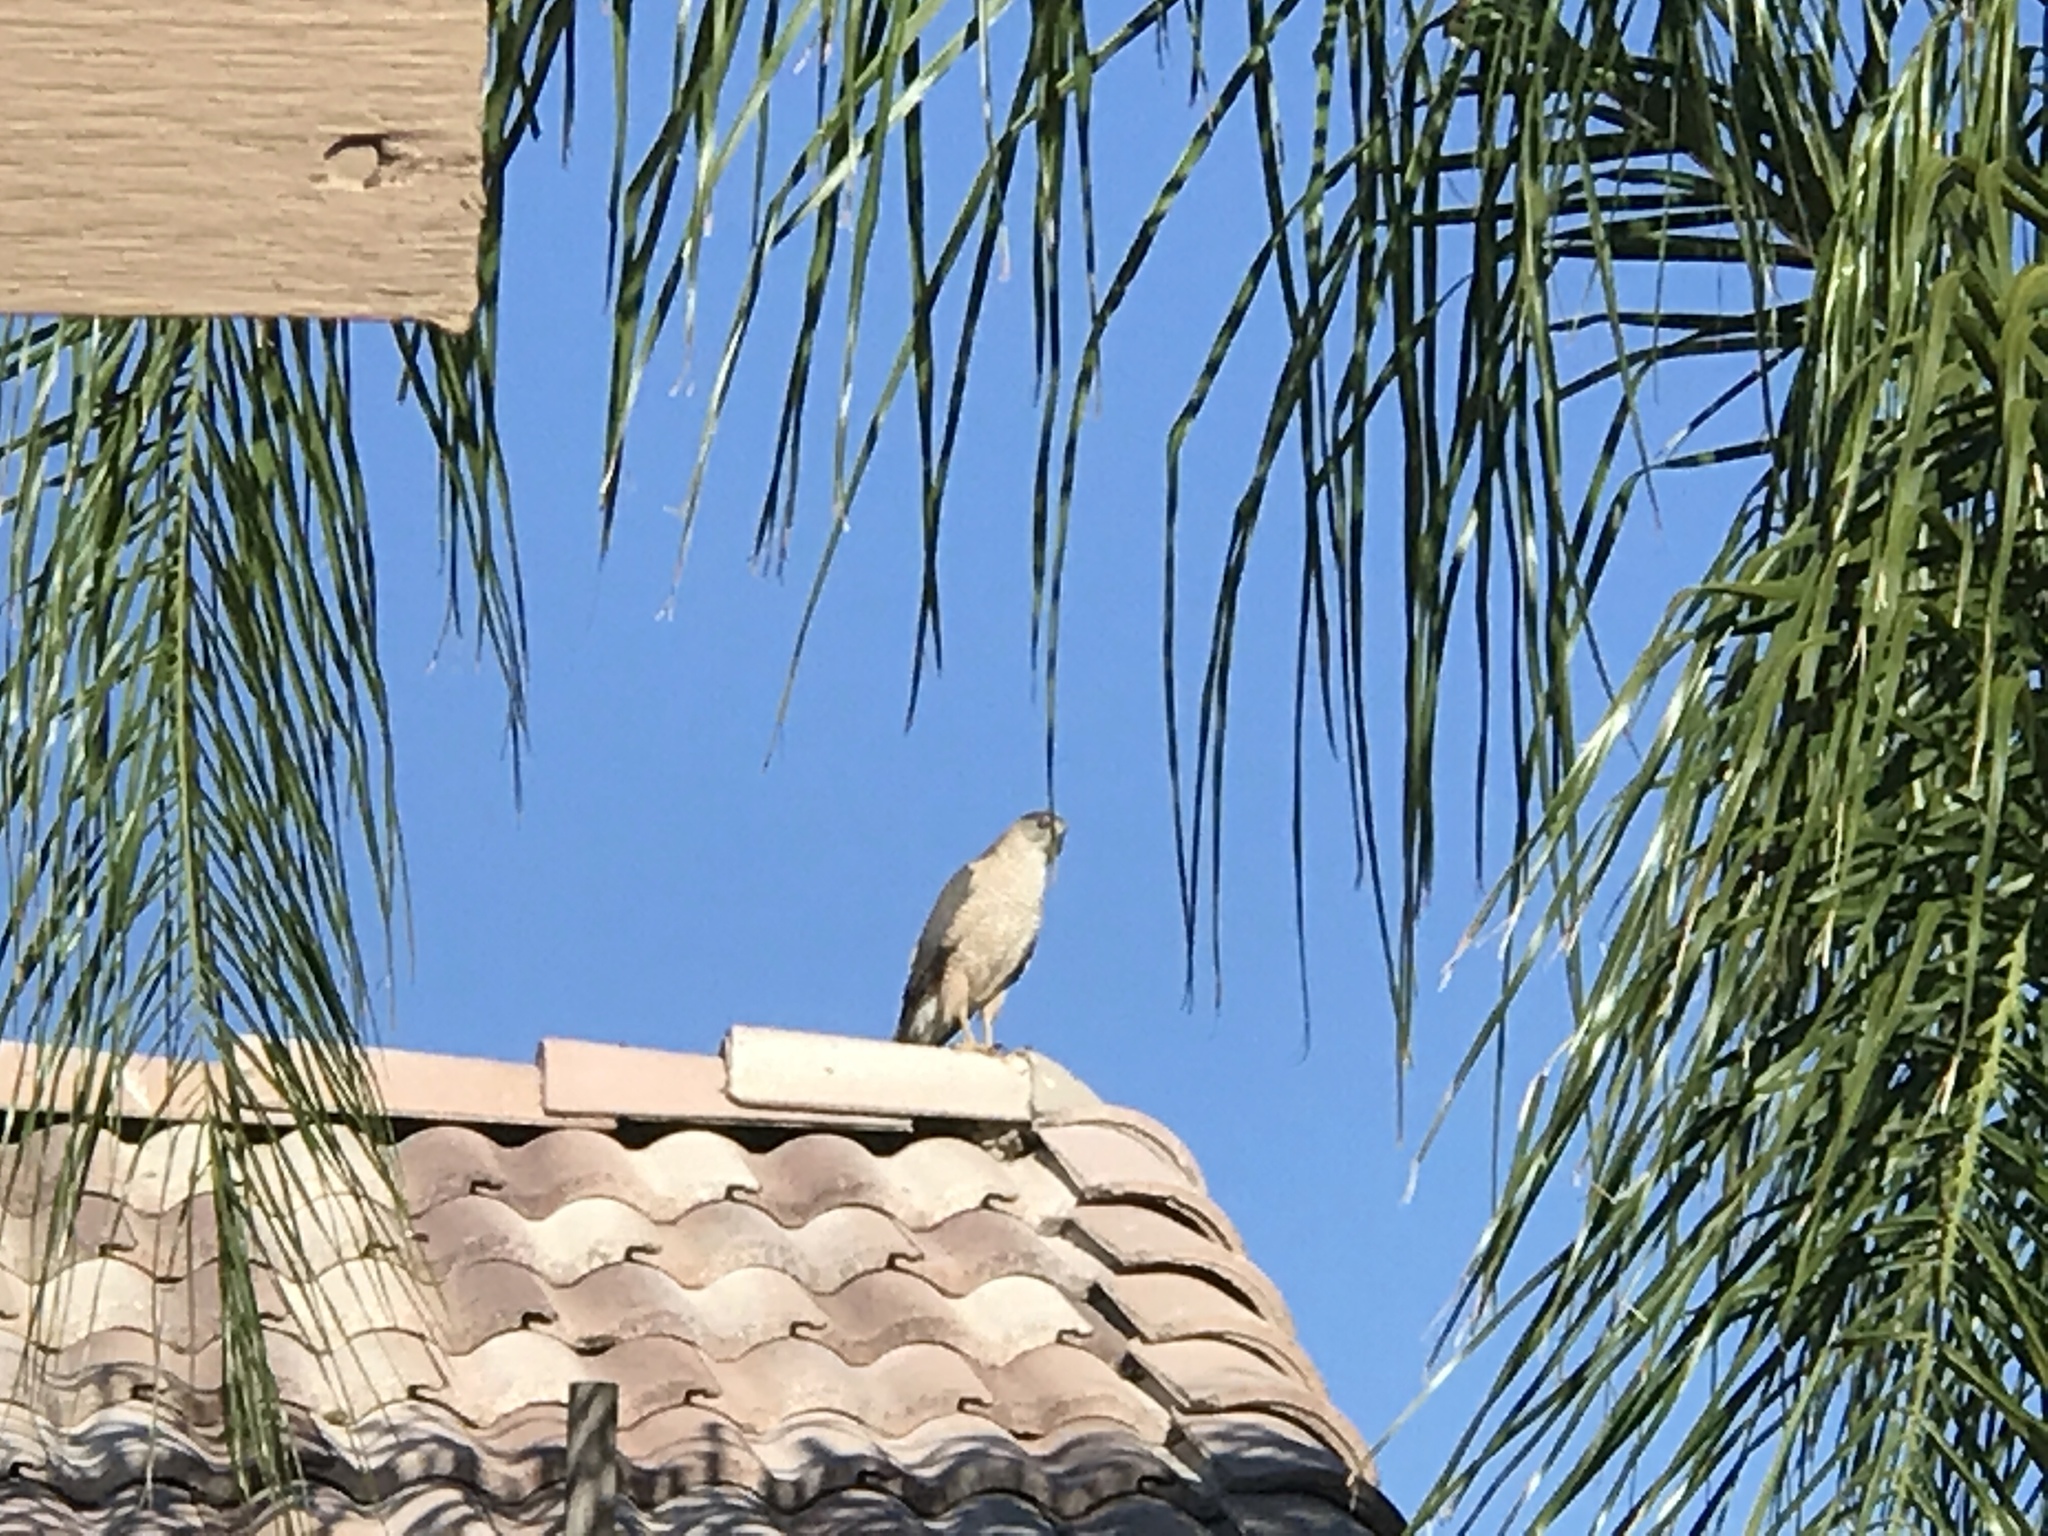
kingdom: Animalia
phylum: Chordata
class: Aves
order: Accipitriformes
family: Accipitridae
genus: Accipiter
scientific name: Accipiter cooperii
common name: Cooper's hawk
